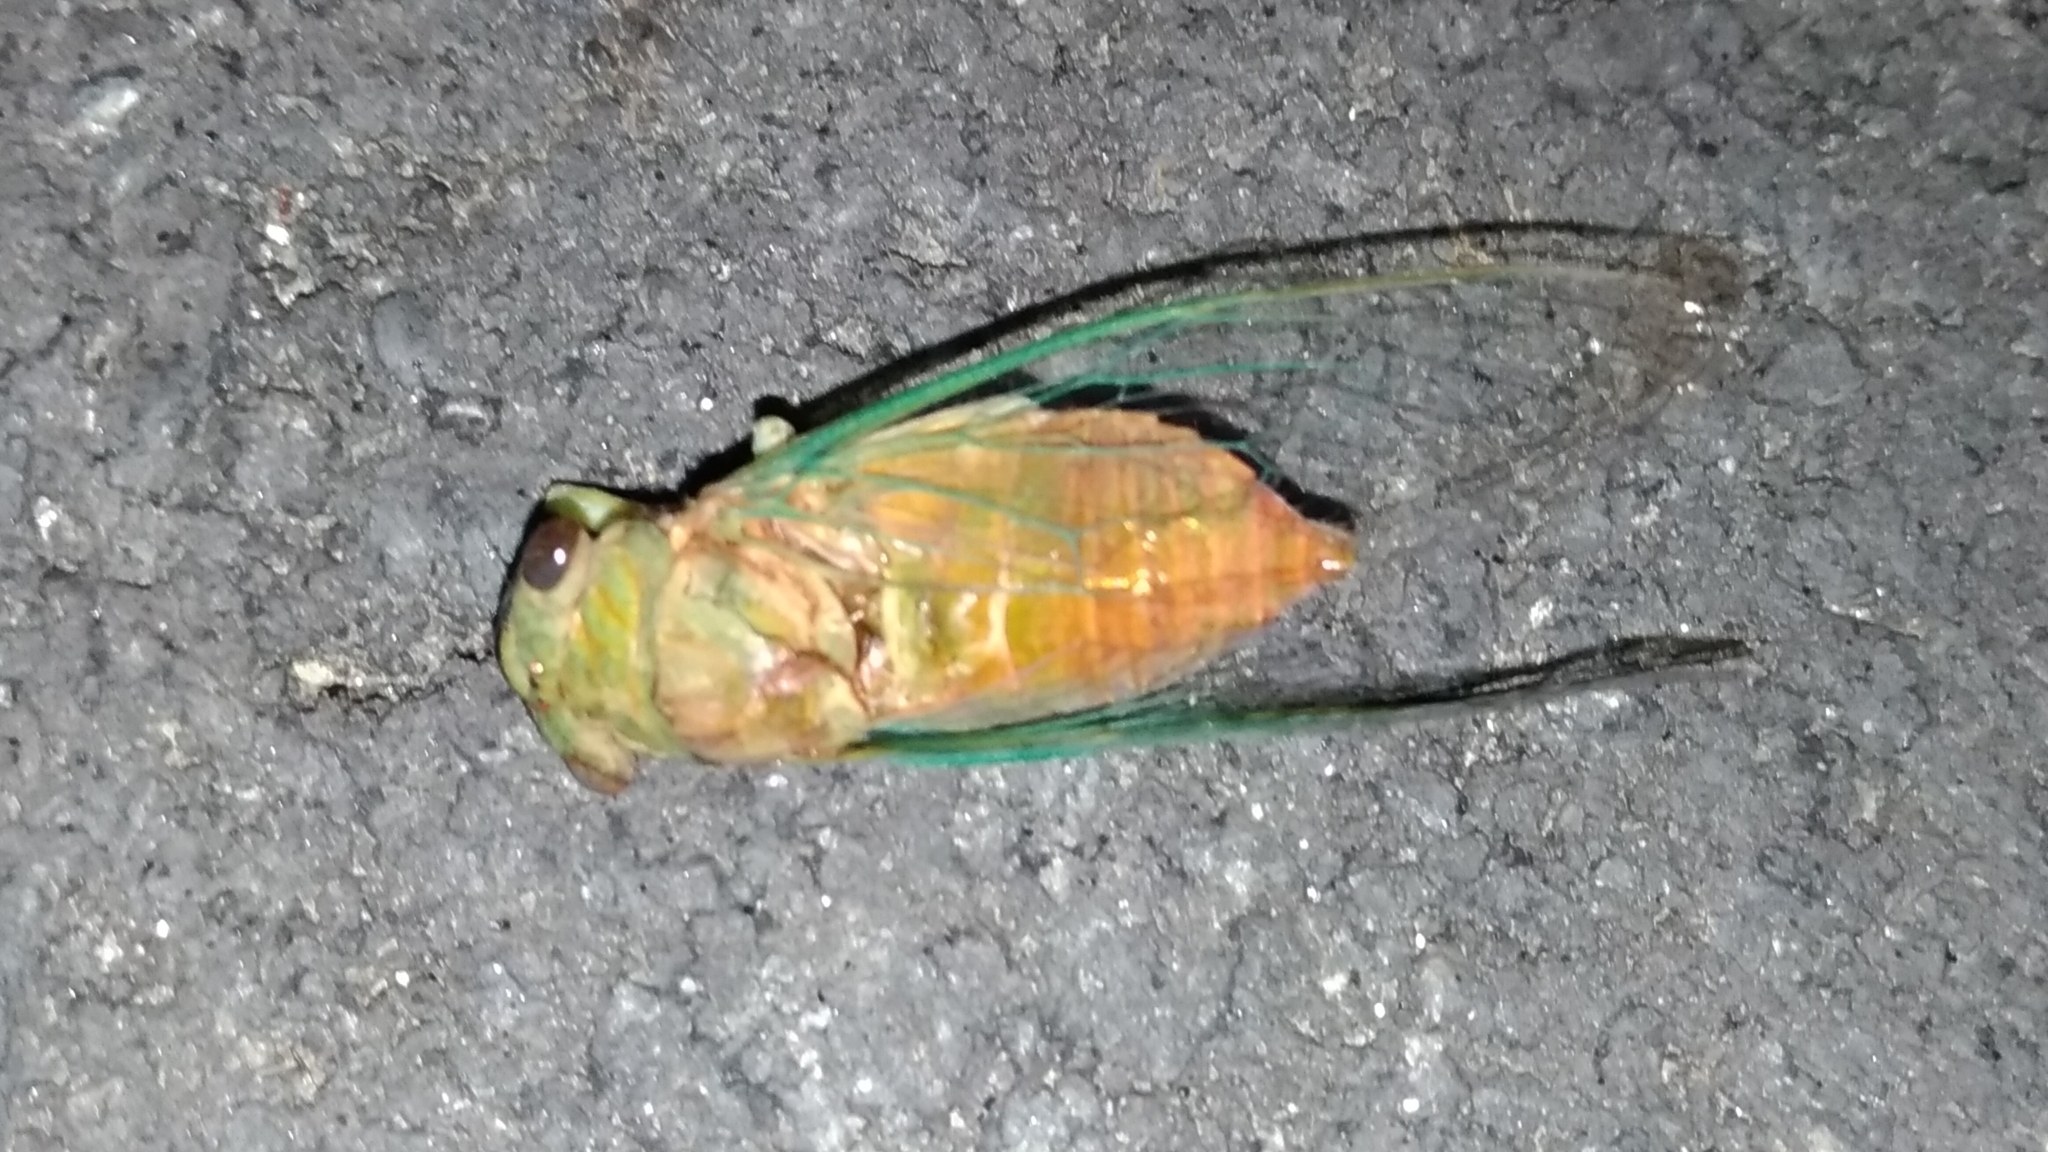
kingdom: Animalia
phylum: Arthropoda
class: Insecta
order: Hemiptera
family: Cicadidae
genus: Chremistica
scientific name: Chremistica ochracea
